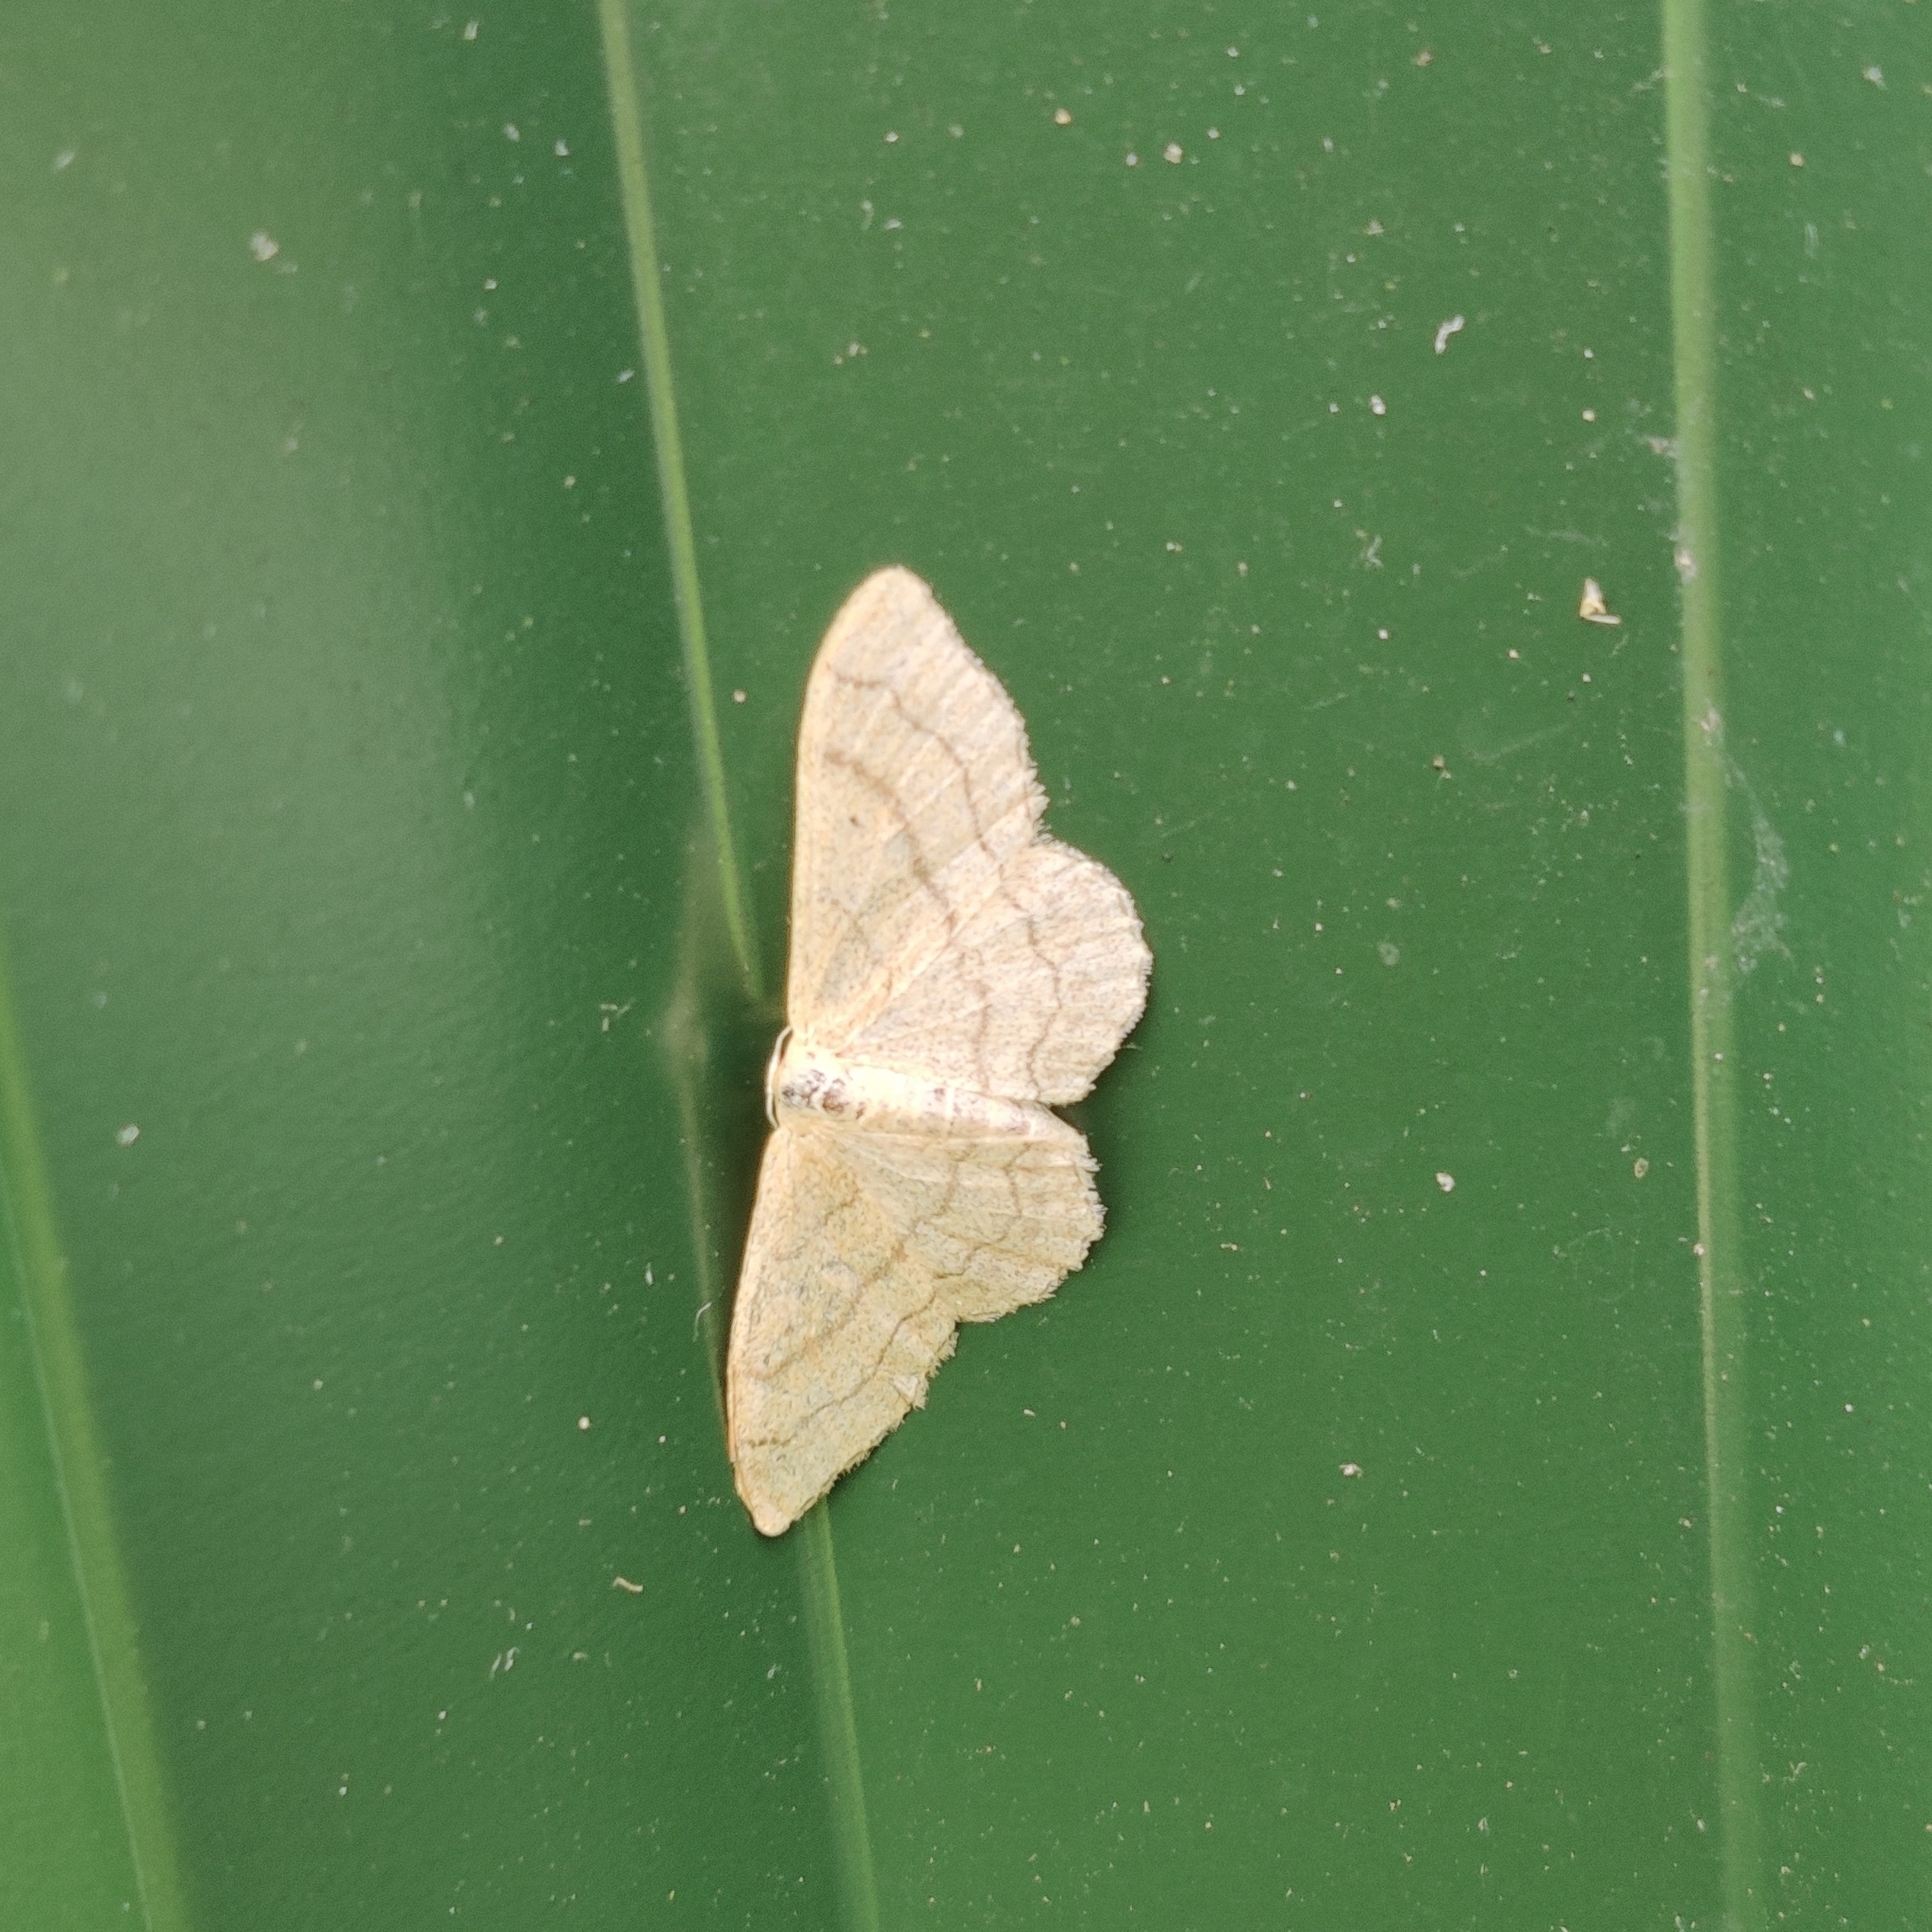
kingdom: Animalia
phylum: Arthropoda
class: Insecta
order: Lepidoptera
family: Geometridae
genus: Idaea
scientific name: Idaea aversata
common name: Riband wave
